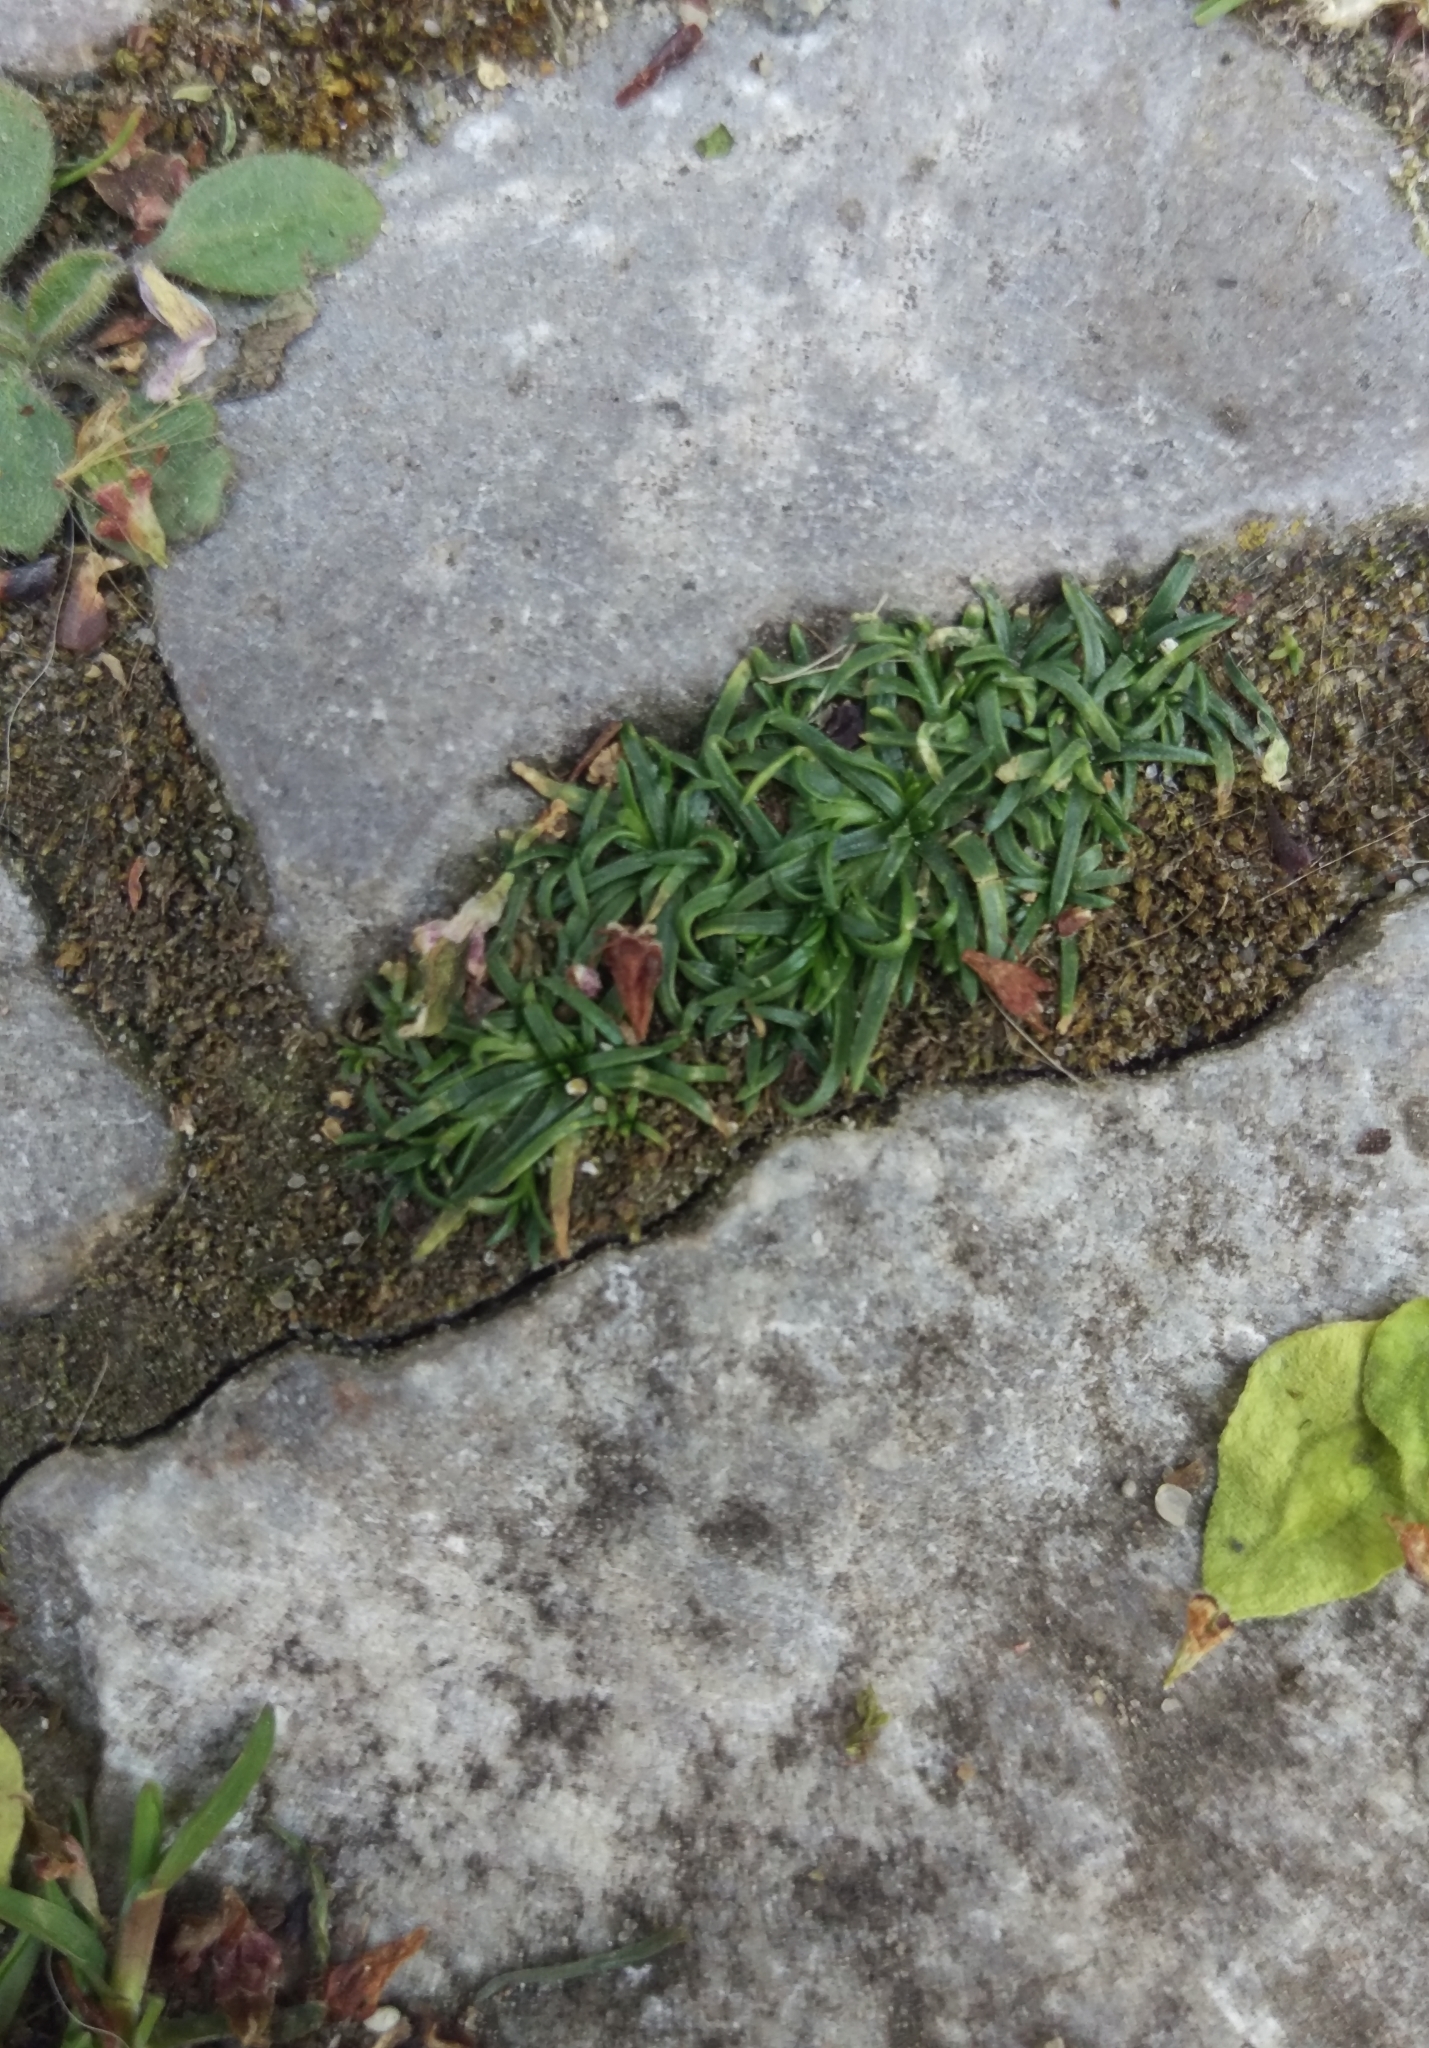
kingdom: Plantae
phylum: Tracheophyta
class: Magnoliopsida
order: Caryophyllales
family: Caryophyllaceae
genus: Sagina
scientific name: Sagina procumbens
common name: Procumbent pearlwort
